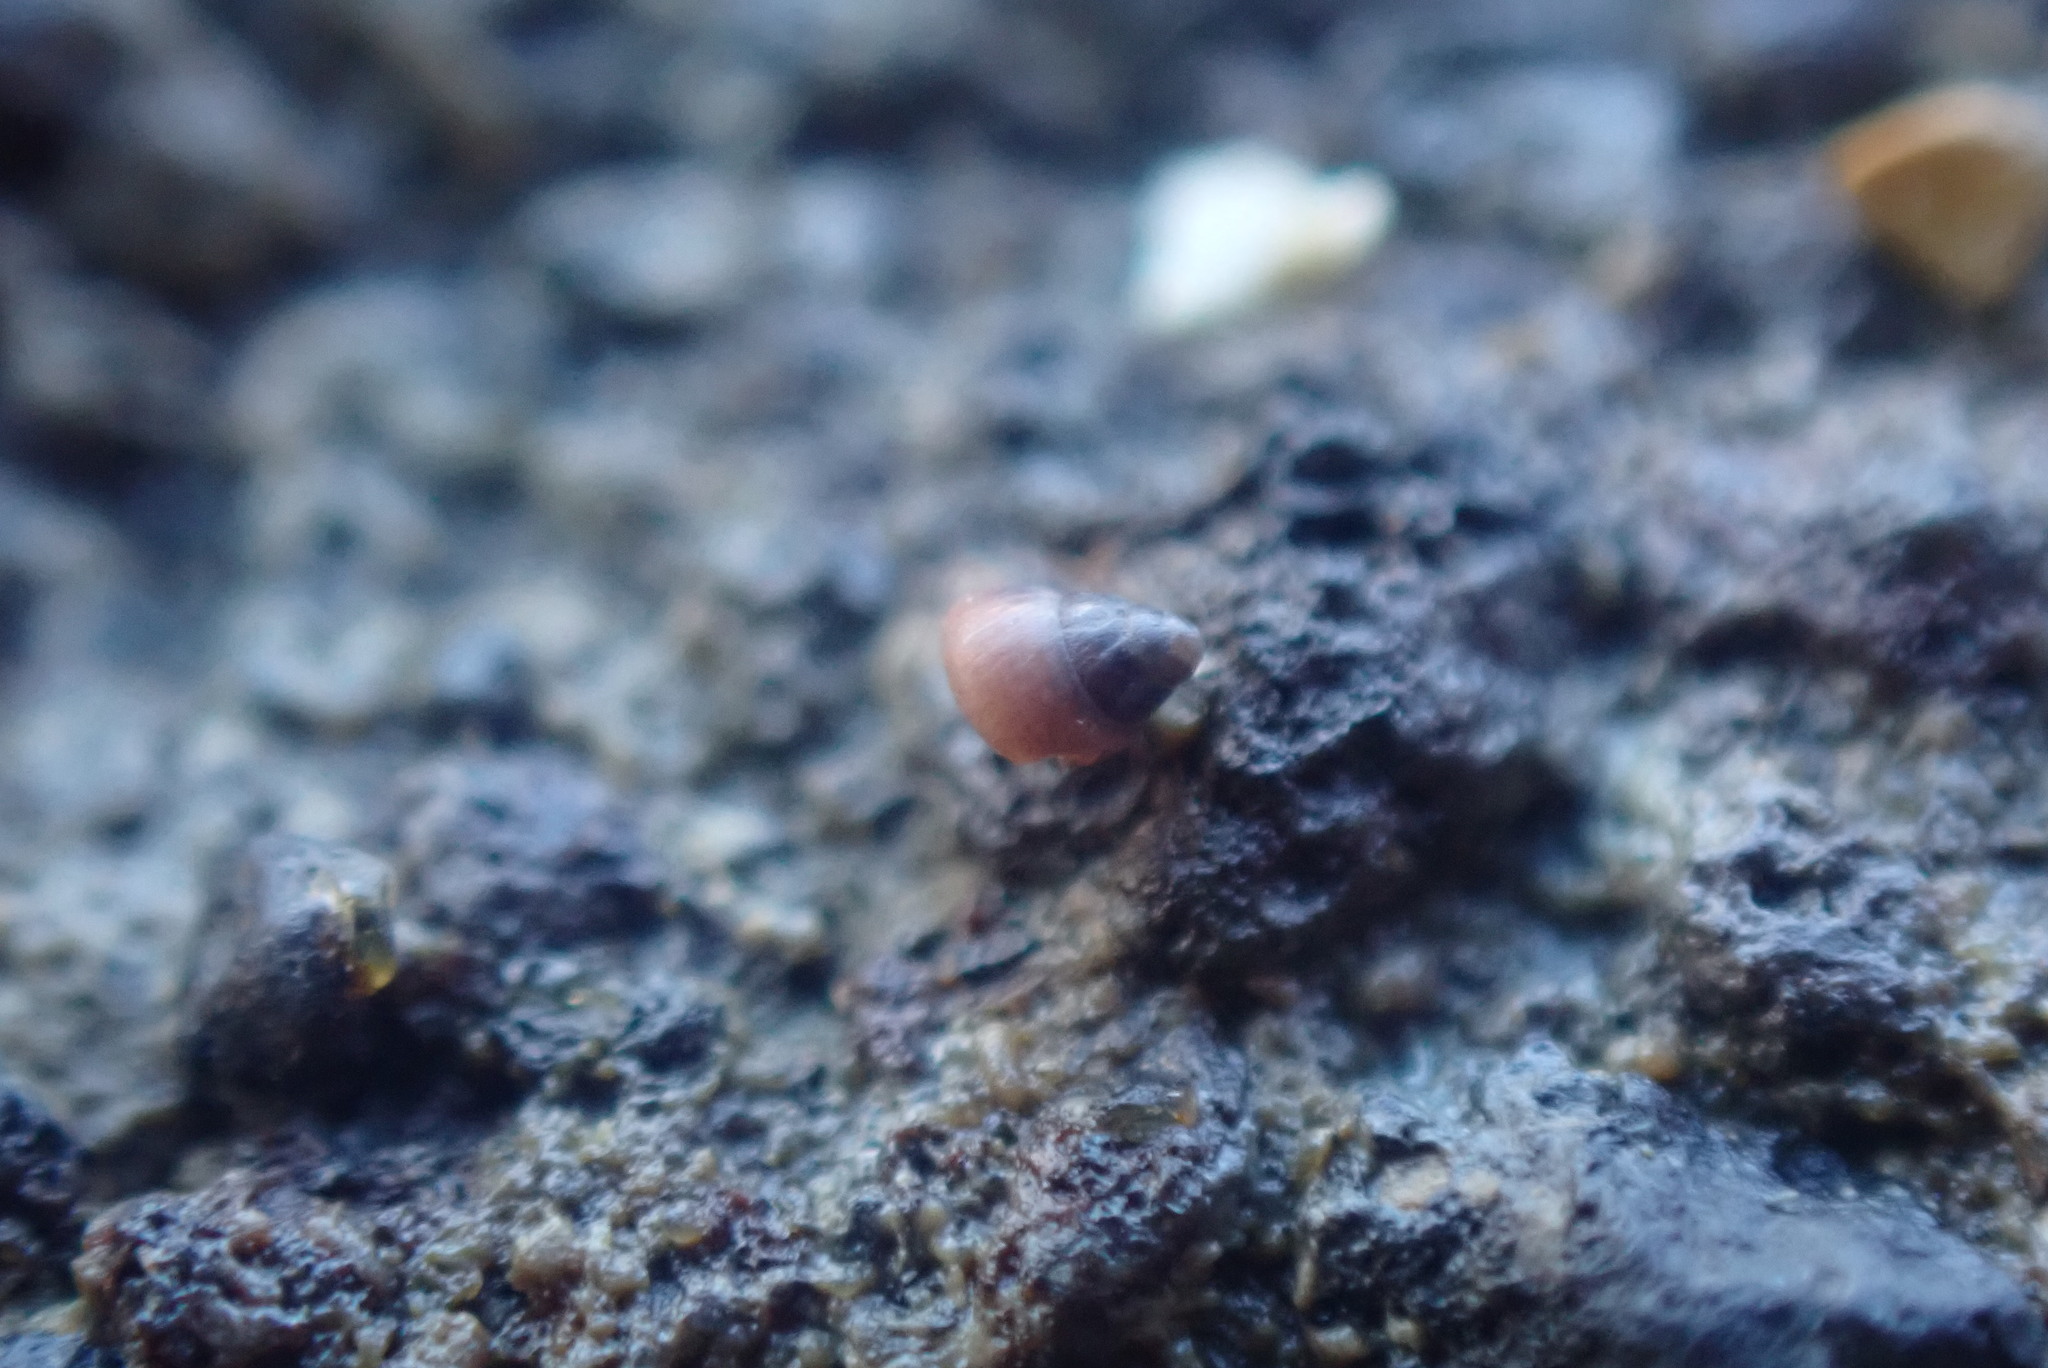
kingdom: Animalia
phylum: Mollusca
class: Gastropoda
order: Littorinimorpha
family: Assimineidae
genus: Assiminea
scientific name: Assiminea
